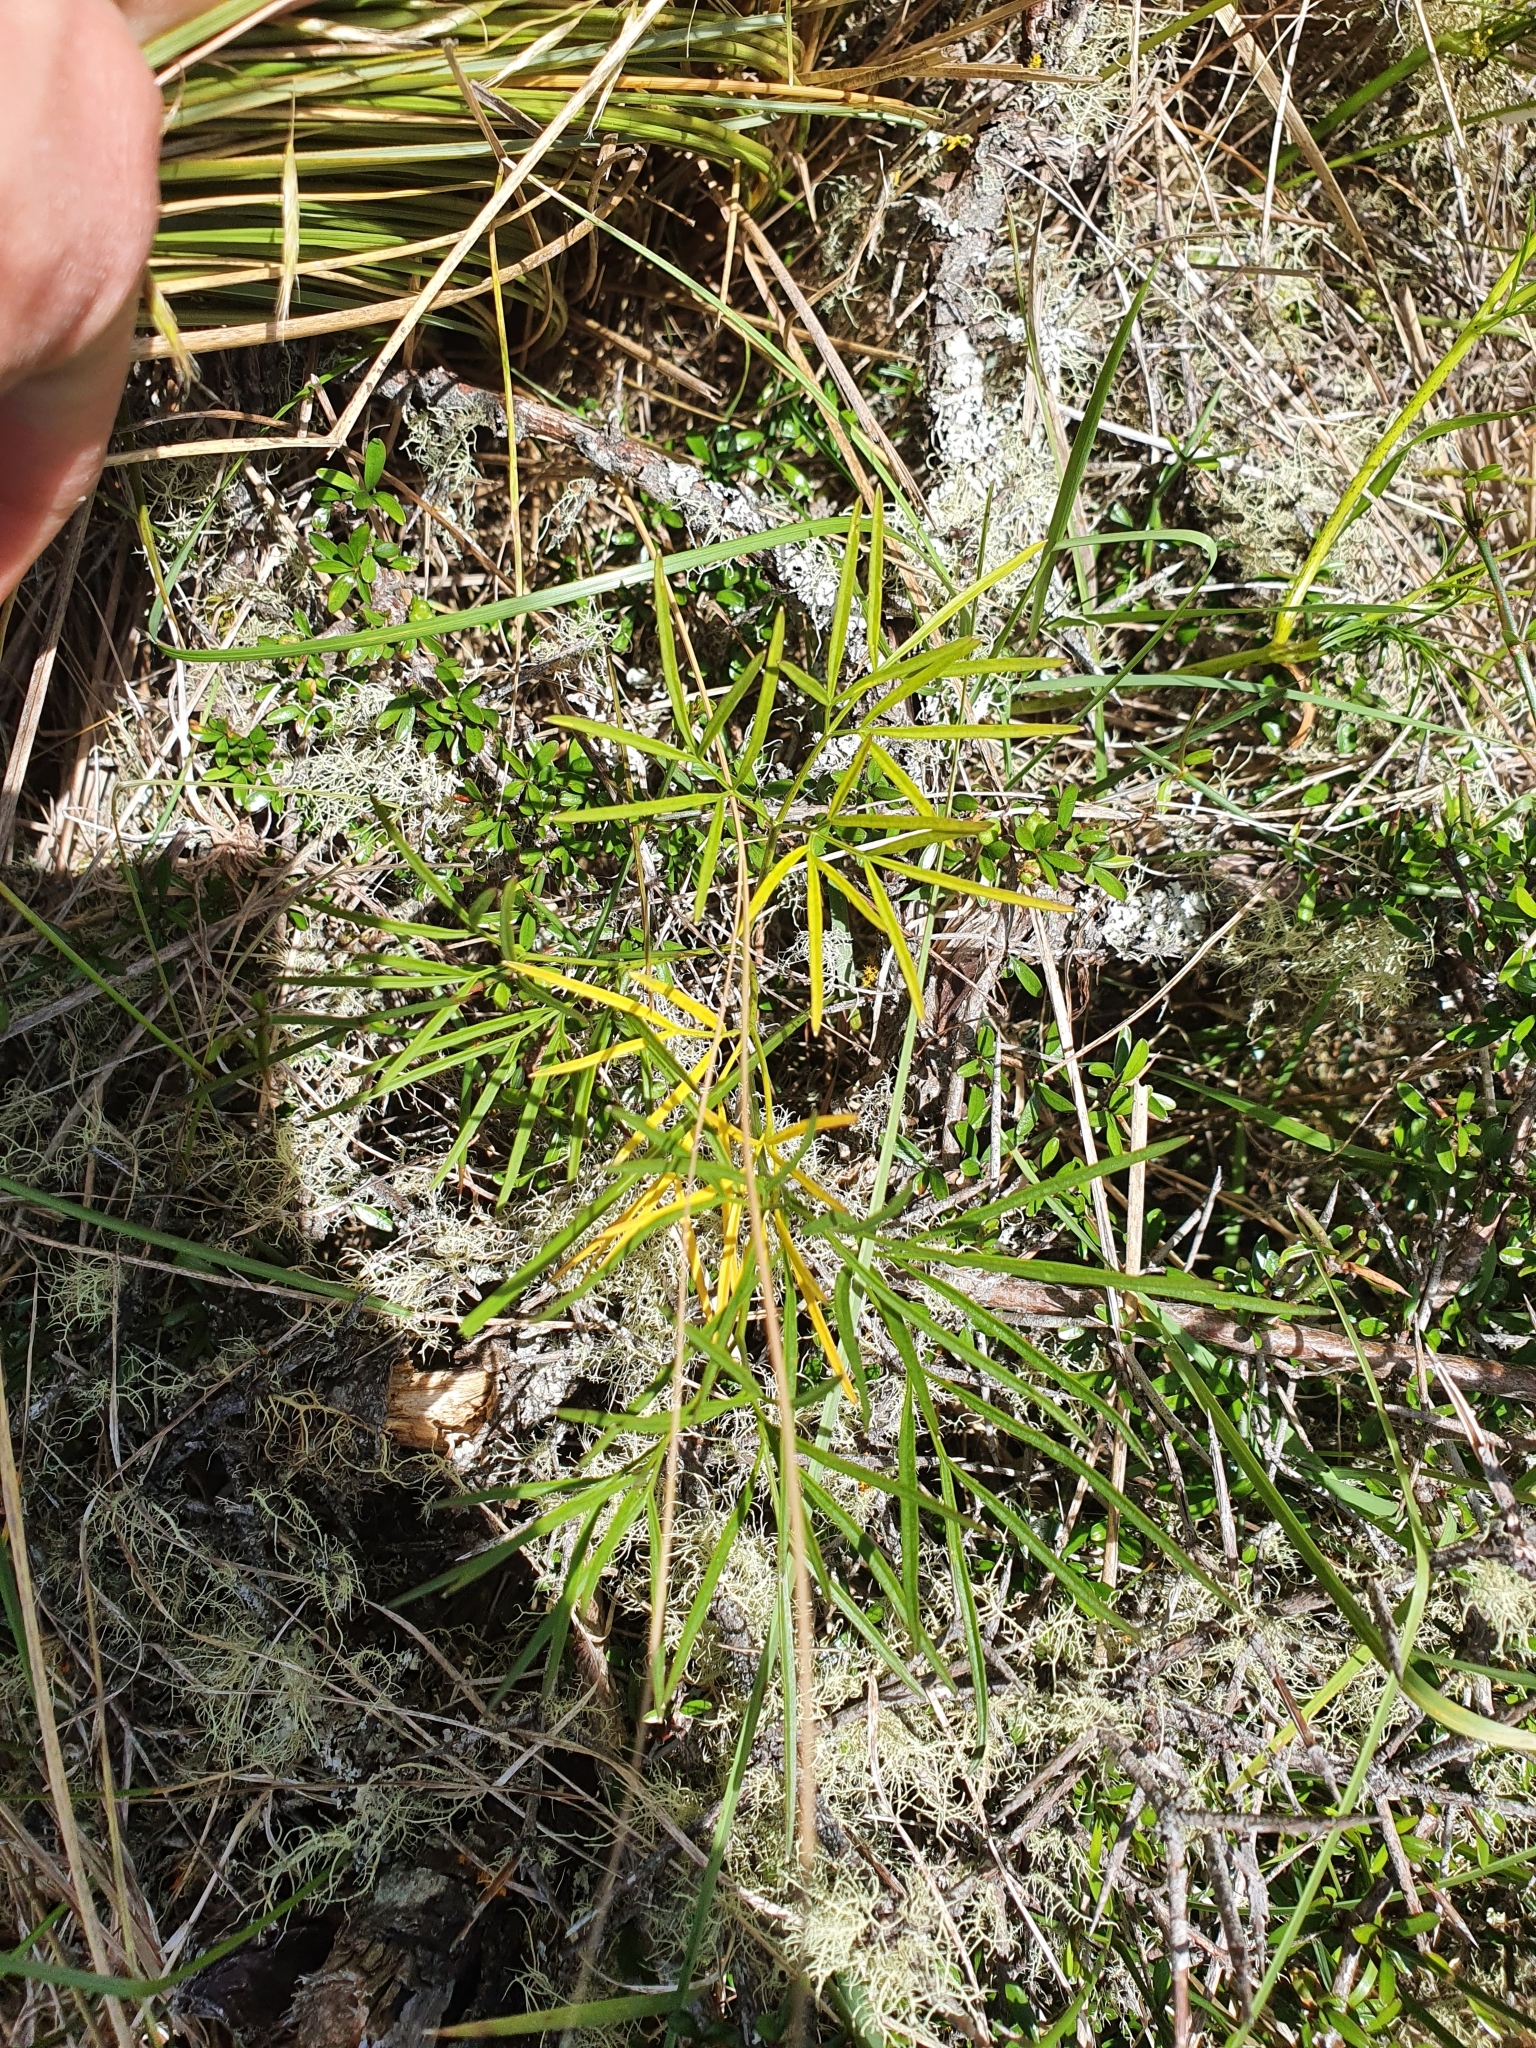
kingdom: Plantae
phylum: Tracheophyta
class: Magnoliopsida
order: Apiales
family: Apiaceae
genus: Anisotome
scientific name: Anisotome filifolia
